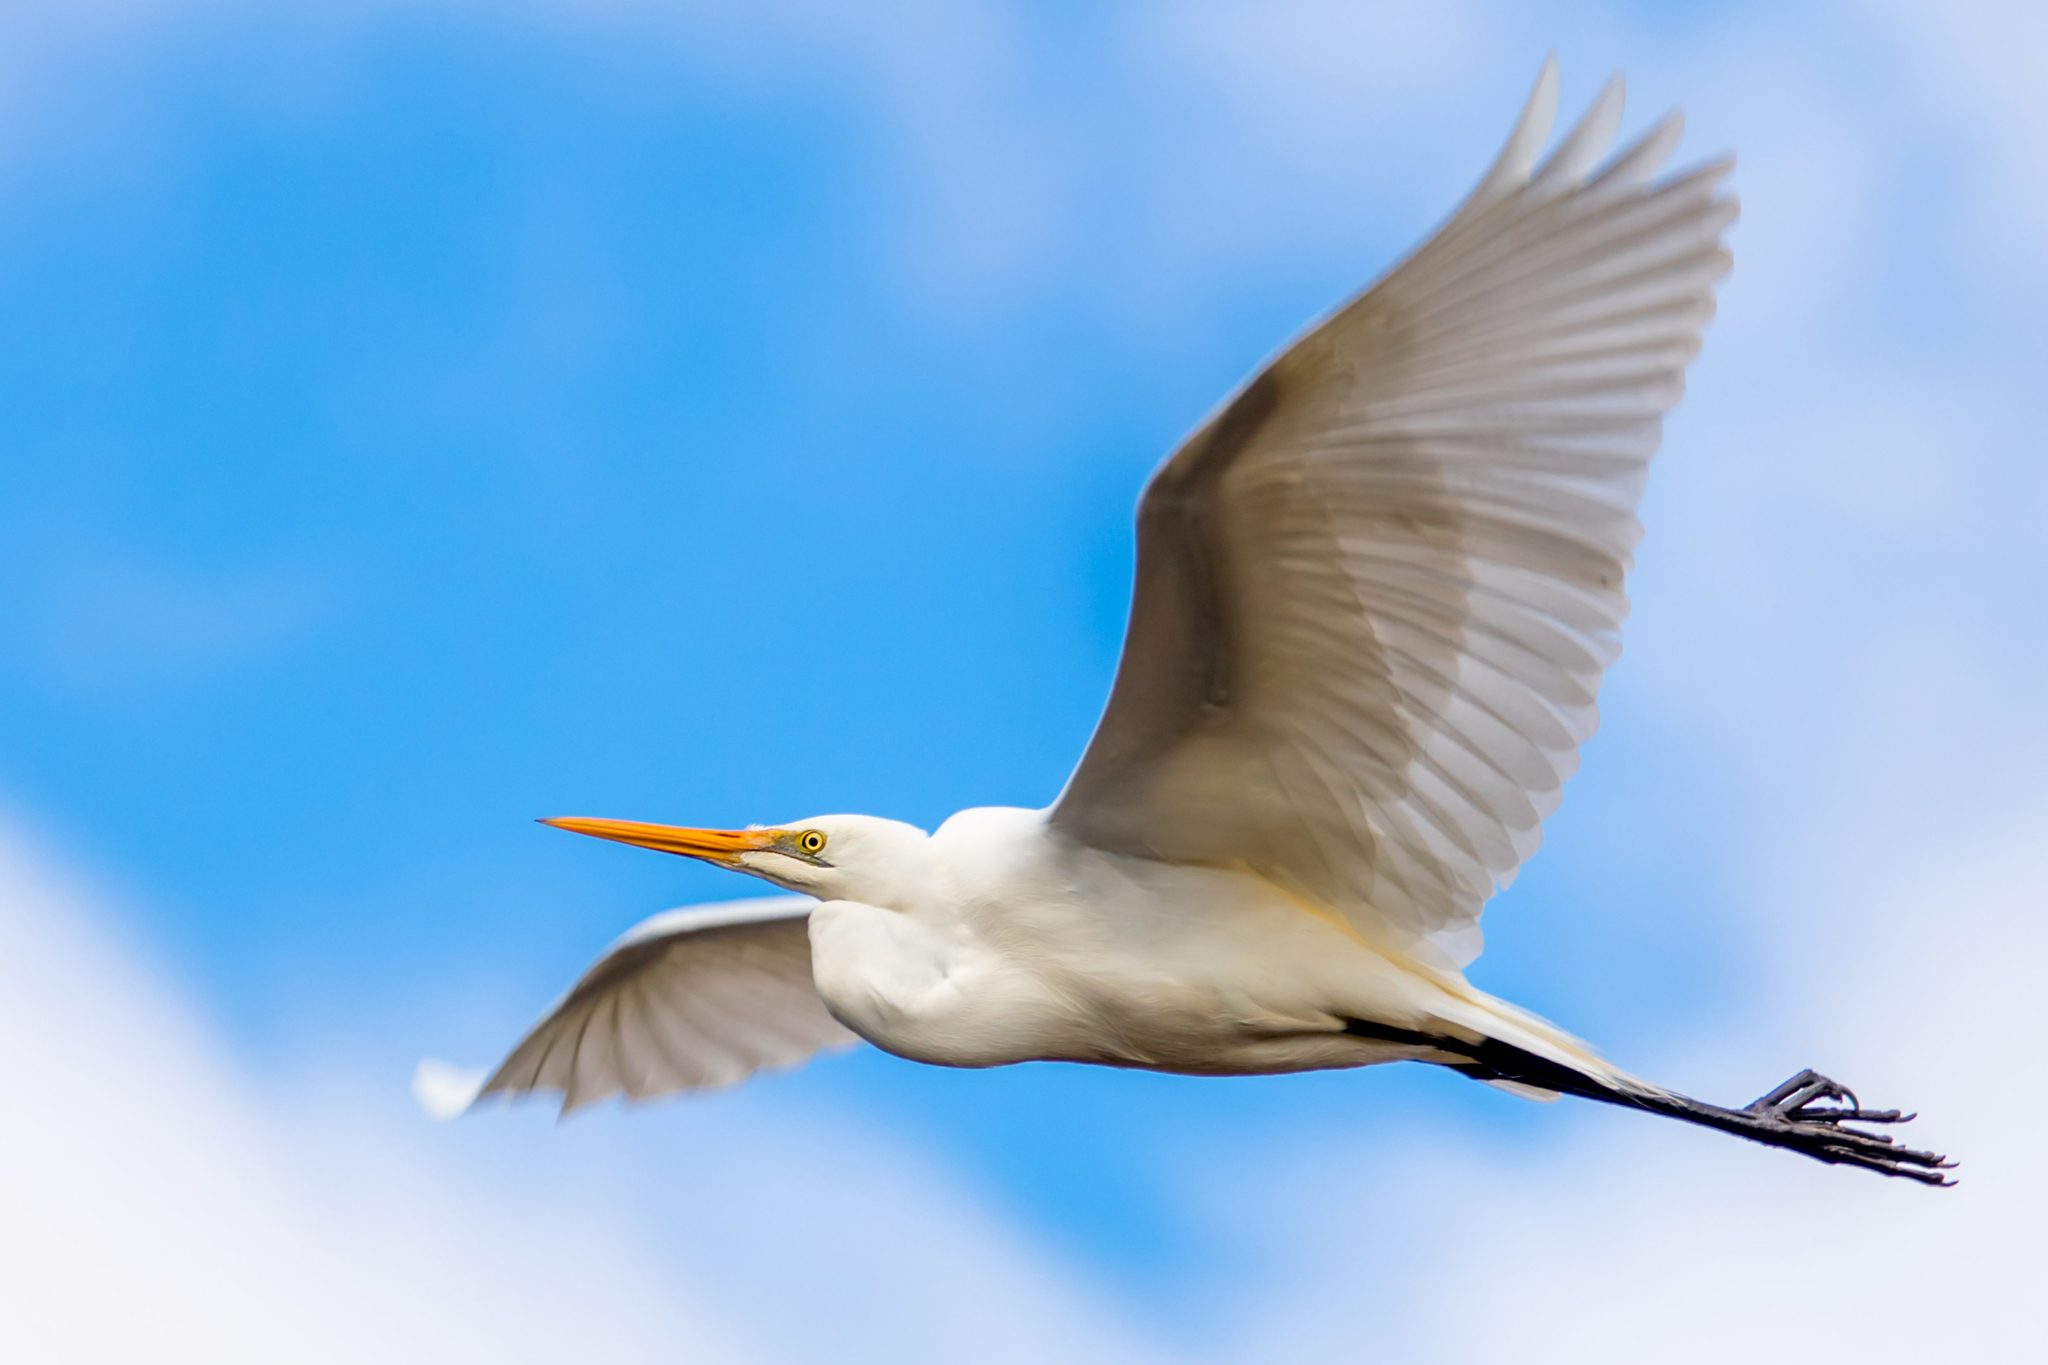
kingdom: Animalia
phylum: Chordata
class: Aves
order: Pelecaniformes
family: Ardeidae
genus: Ardea
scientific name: Ardea modesta
